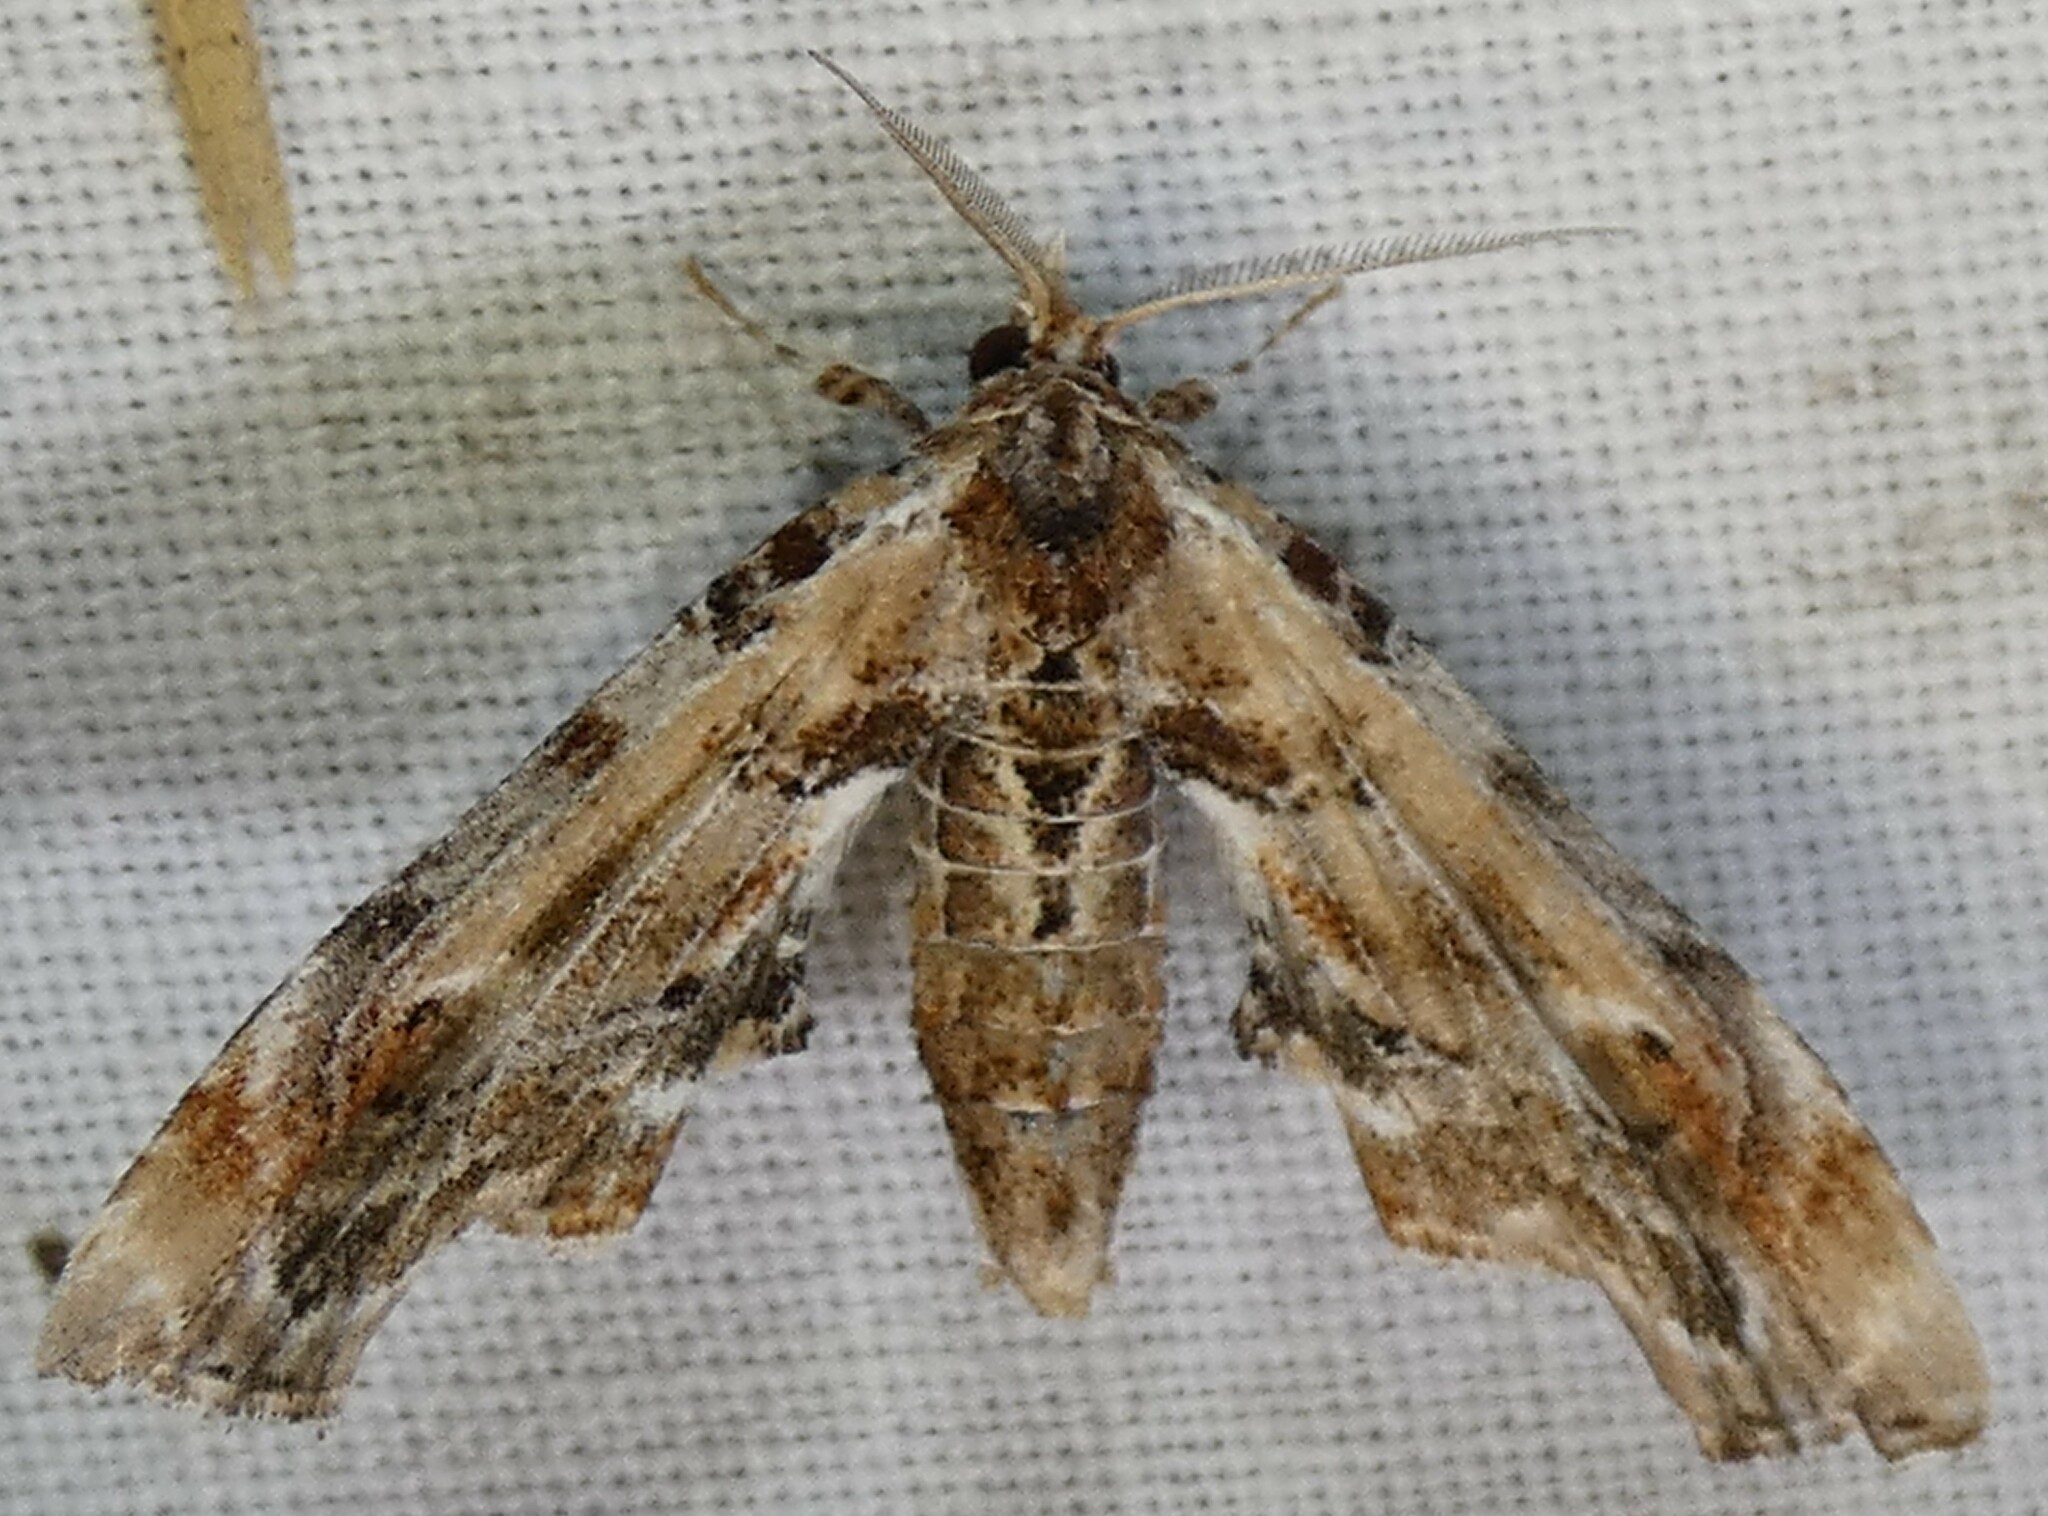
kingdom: Animalia
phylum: Arthropoda
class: Insecta
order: Lepidoptera
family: Euteliidae
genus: Marathyssa
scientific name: Marathyssa basalis
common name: Light marathyssa moth
